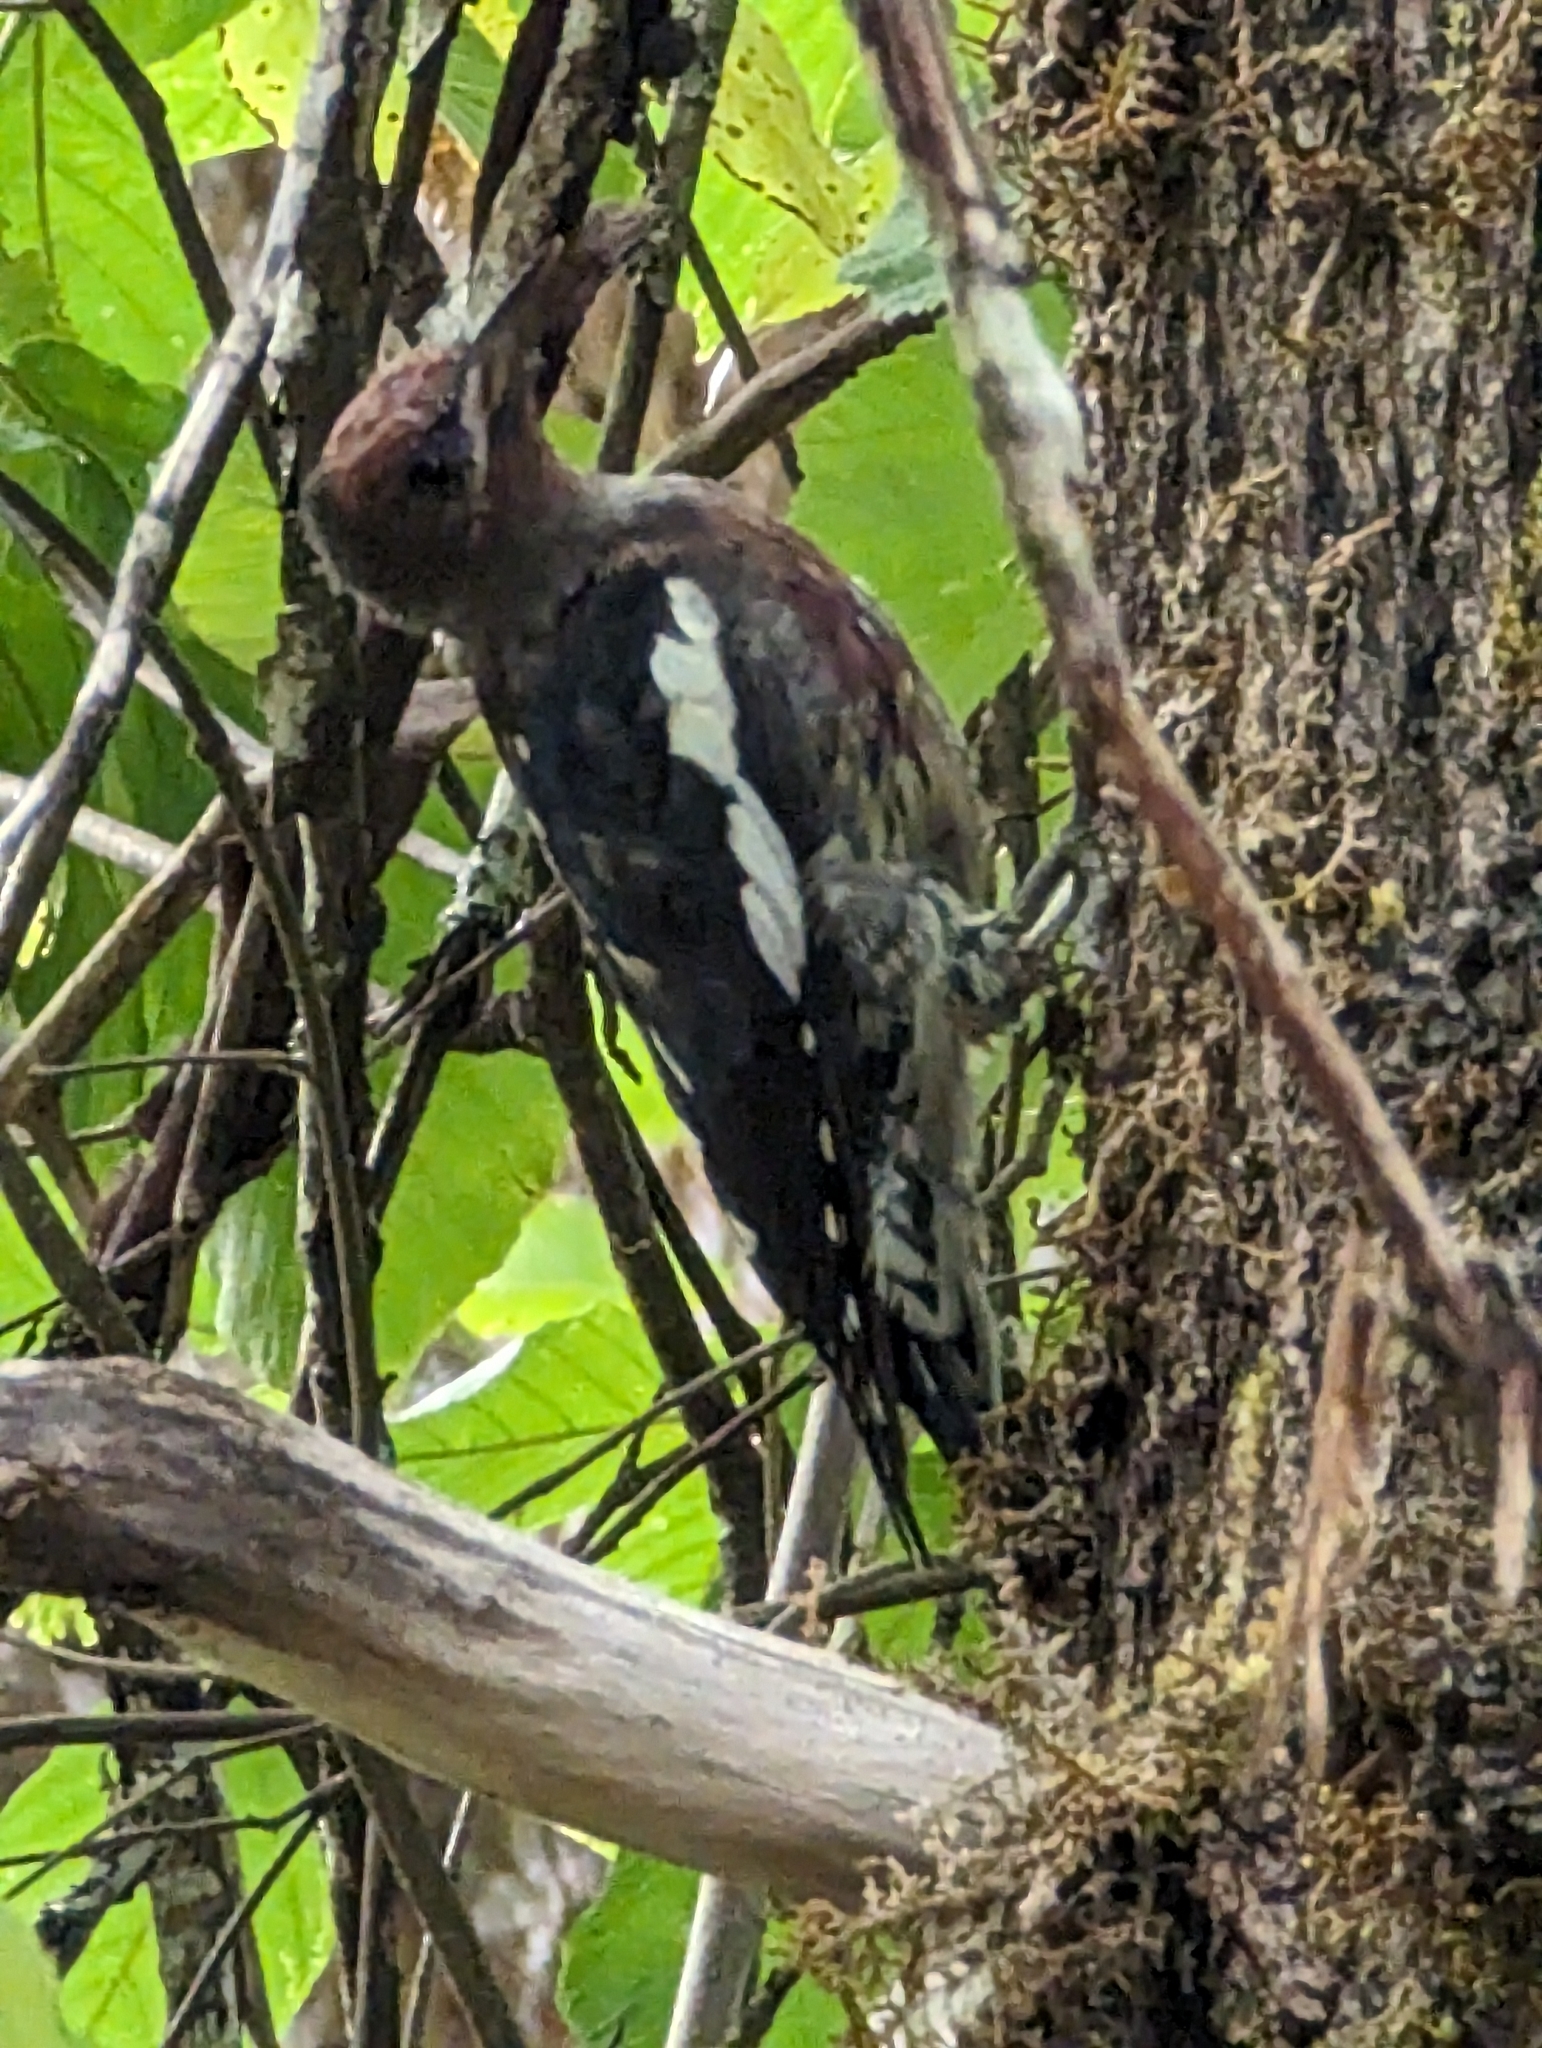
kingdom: Animalia
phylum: Chordata
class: Aves
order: Piciformes
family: Picidae
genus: Sphyrapicus
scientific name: Sphyrapicus ruber
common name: Red-breasted sapsucker
